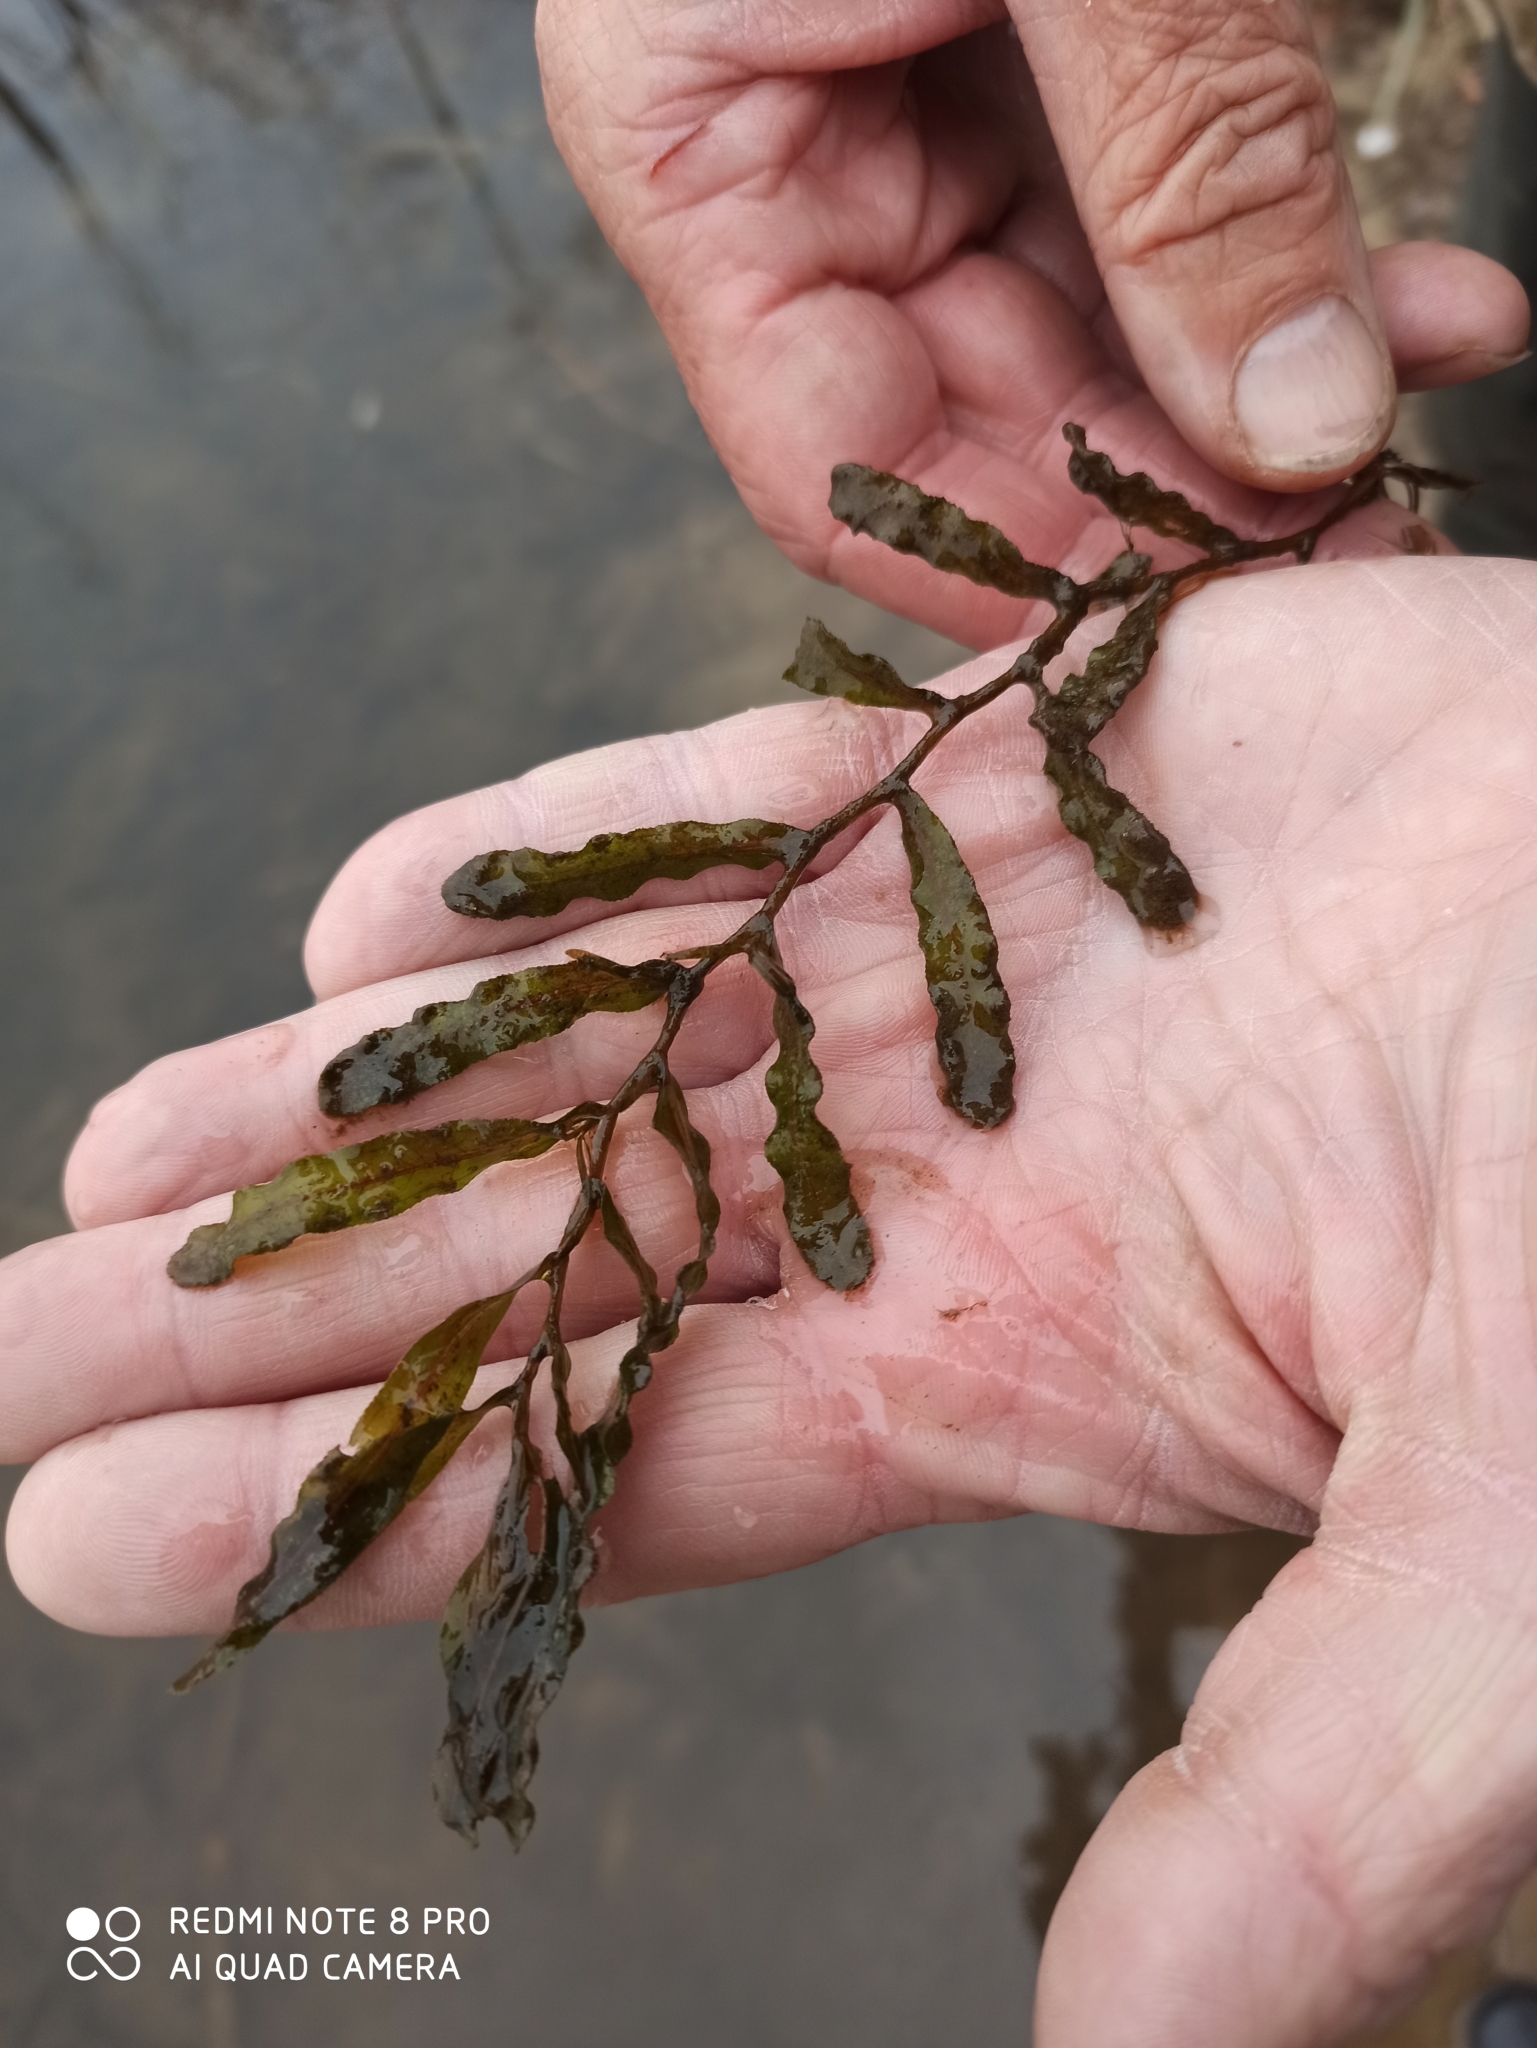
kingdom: Plantae
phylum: Tracheophyta
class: Liliopsida
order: Alismatales
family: Potamogetonaceae
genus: Potamogeton
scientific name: Potamogeton crispus
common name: Curled pondweed
